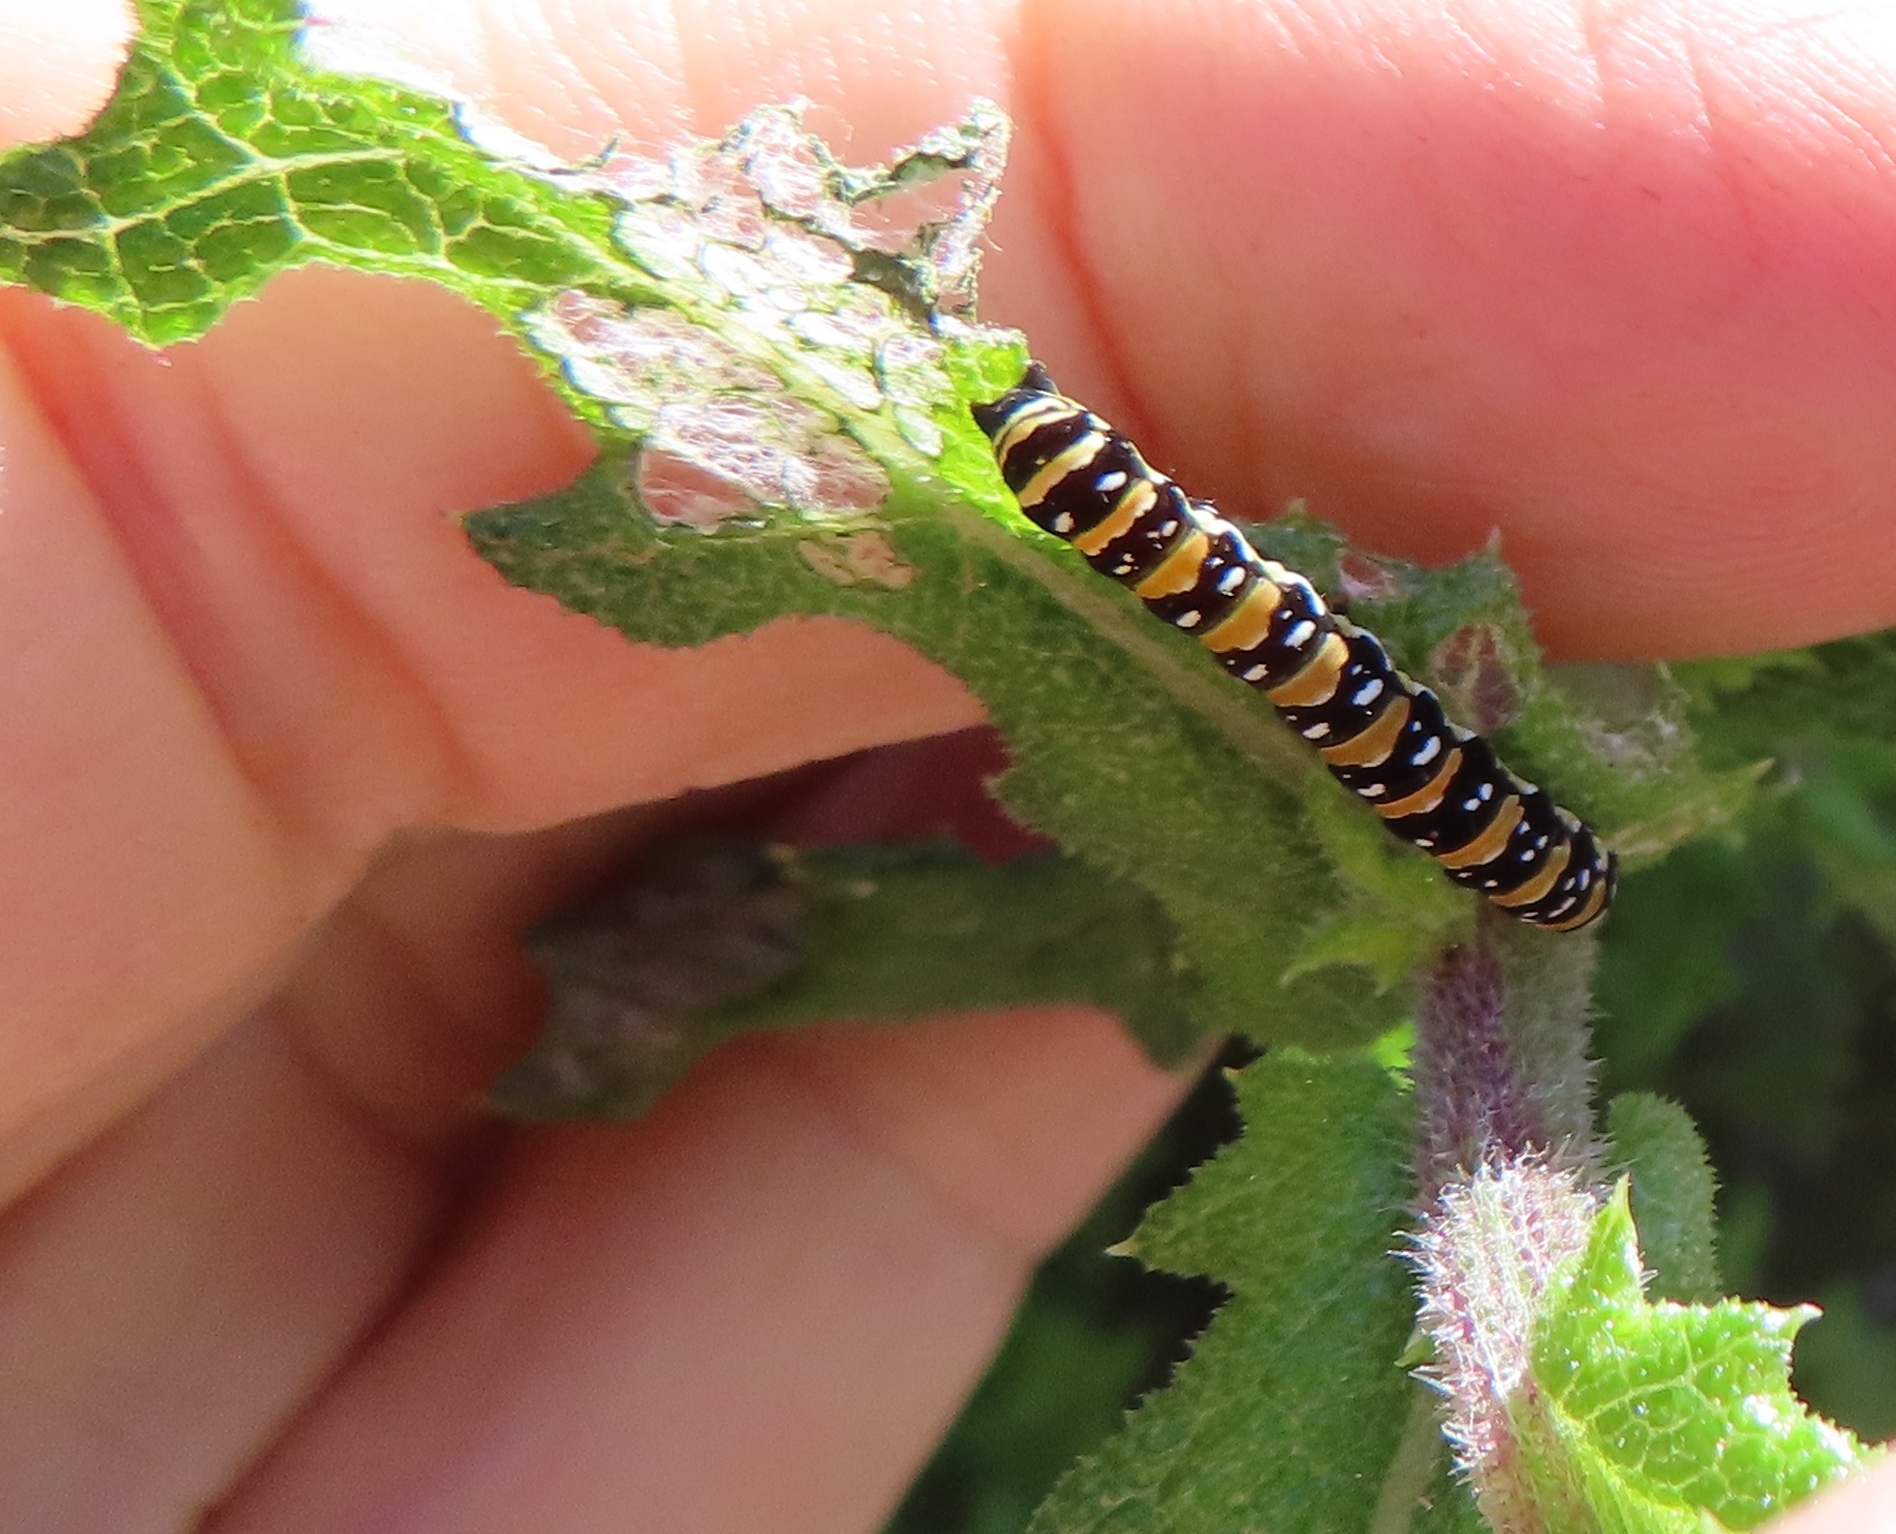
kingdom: Animalia
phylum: Arthropoda
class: Insecta
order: Lepidoptera
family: Noctuidae
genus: Klugeana
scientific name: Klugeana philoxalis
